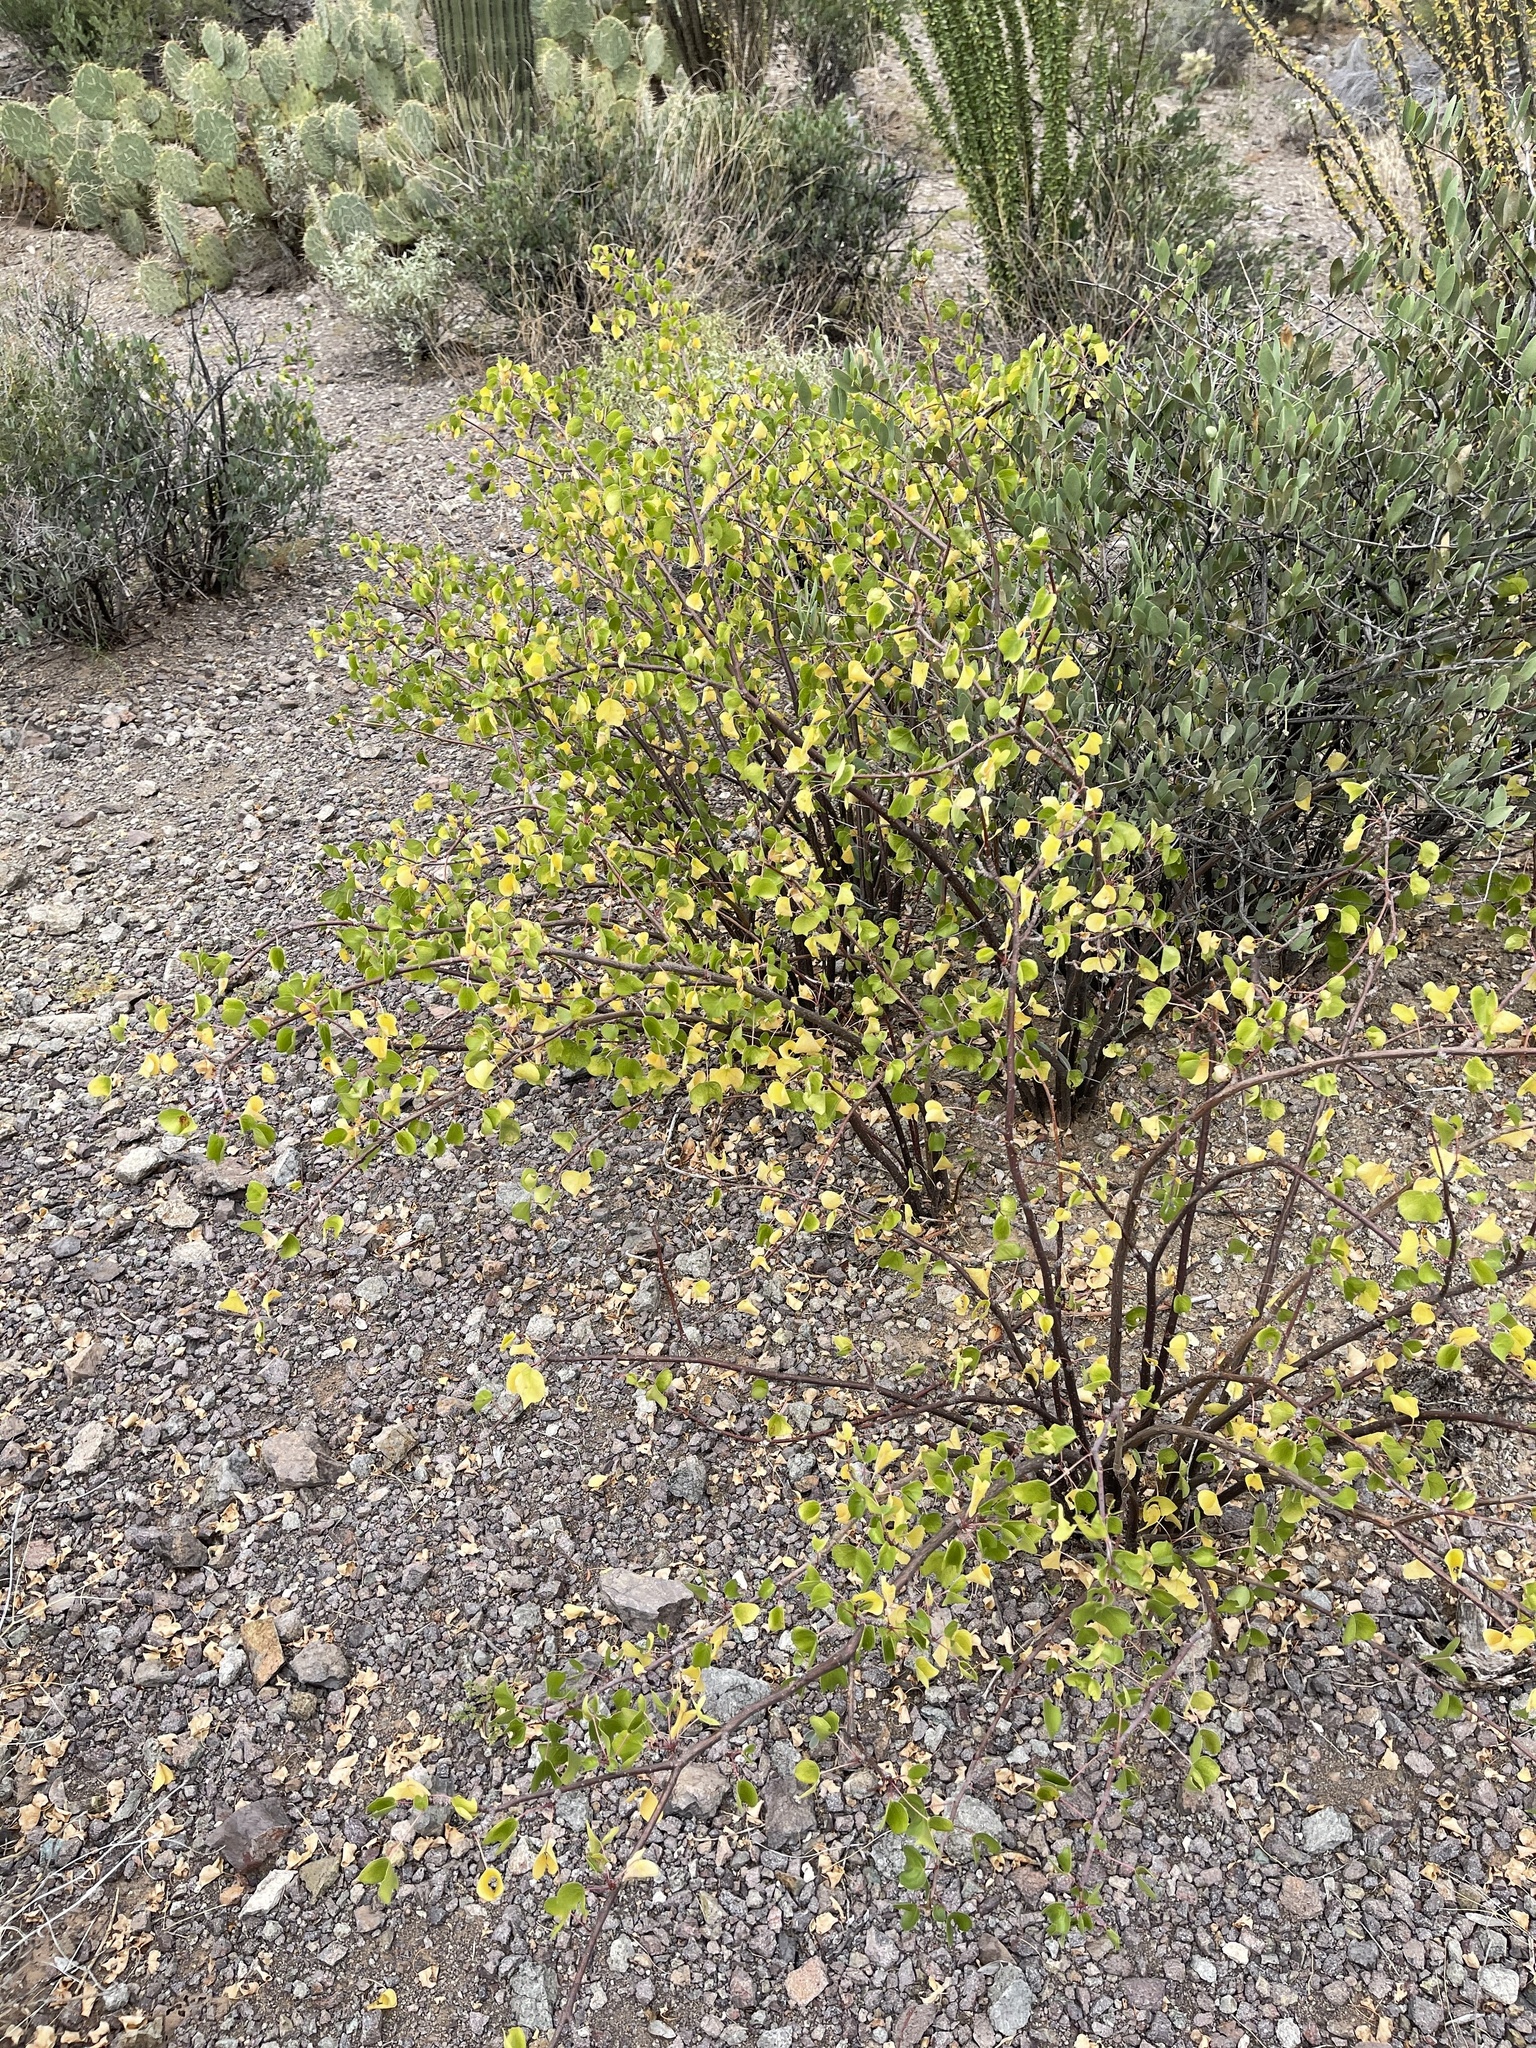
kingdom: Plantae
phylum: Tracheophyta
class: Magnoliopsida
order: Malpighiales
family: Euphorbiaceae
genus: Jatropha
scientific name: Jatropha cardiophylla
